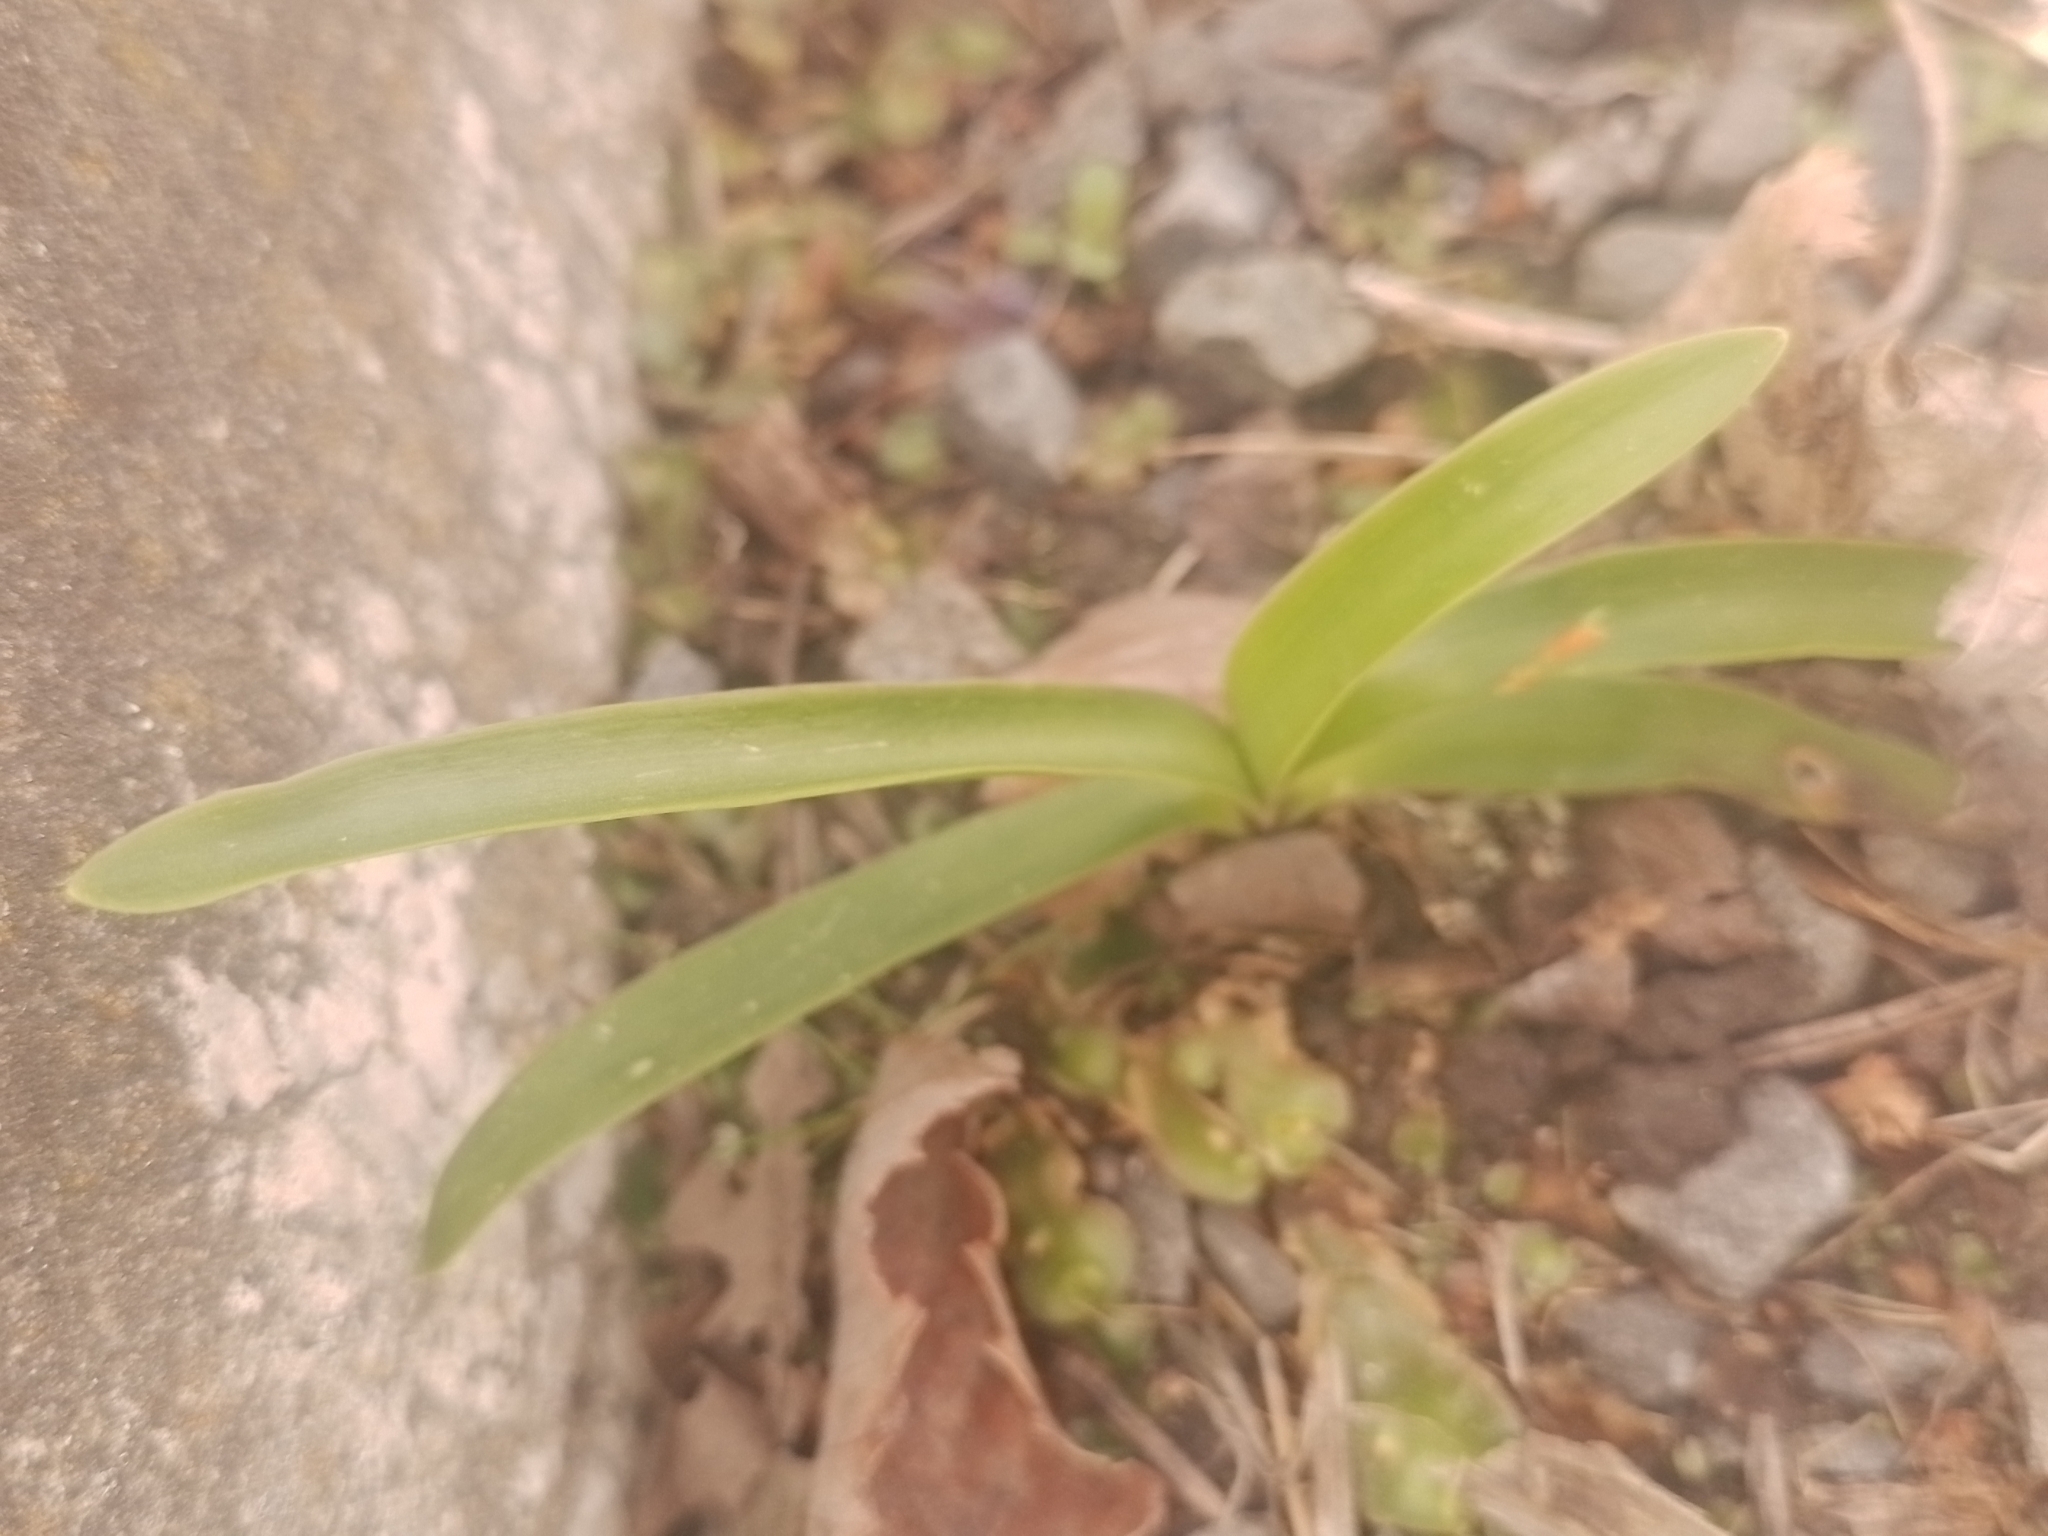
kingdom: Plantae
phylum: Tracheophyta
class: Liliopsida
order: Asparagales
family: Amaryllidaceae
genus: Agapanthus
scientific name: Agapanthus praecox
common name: African-lily
